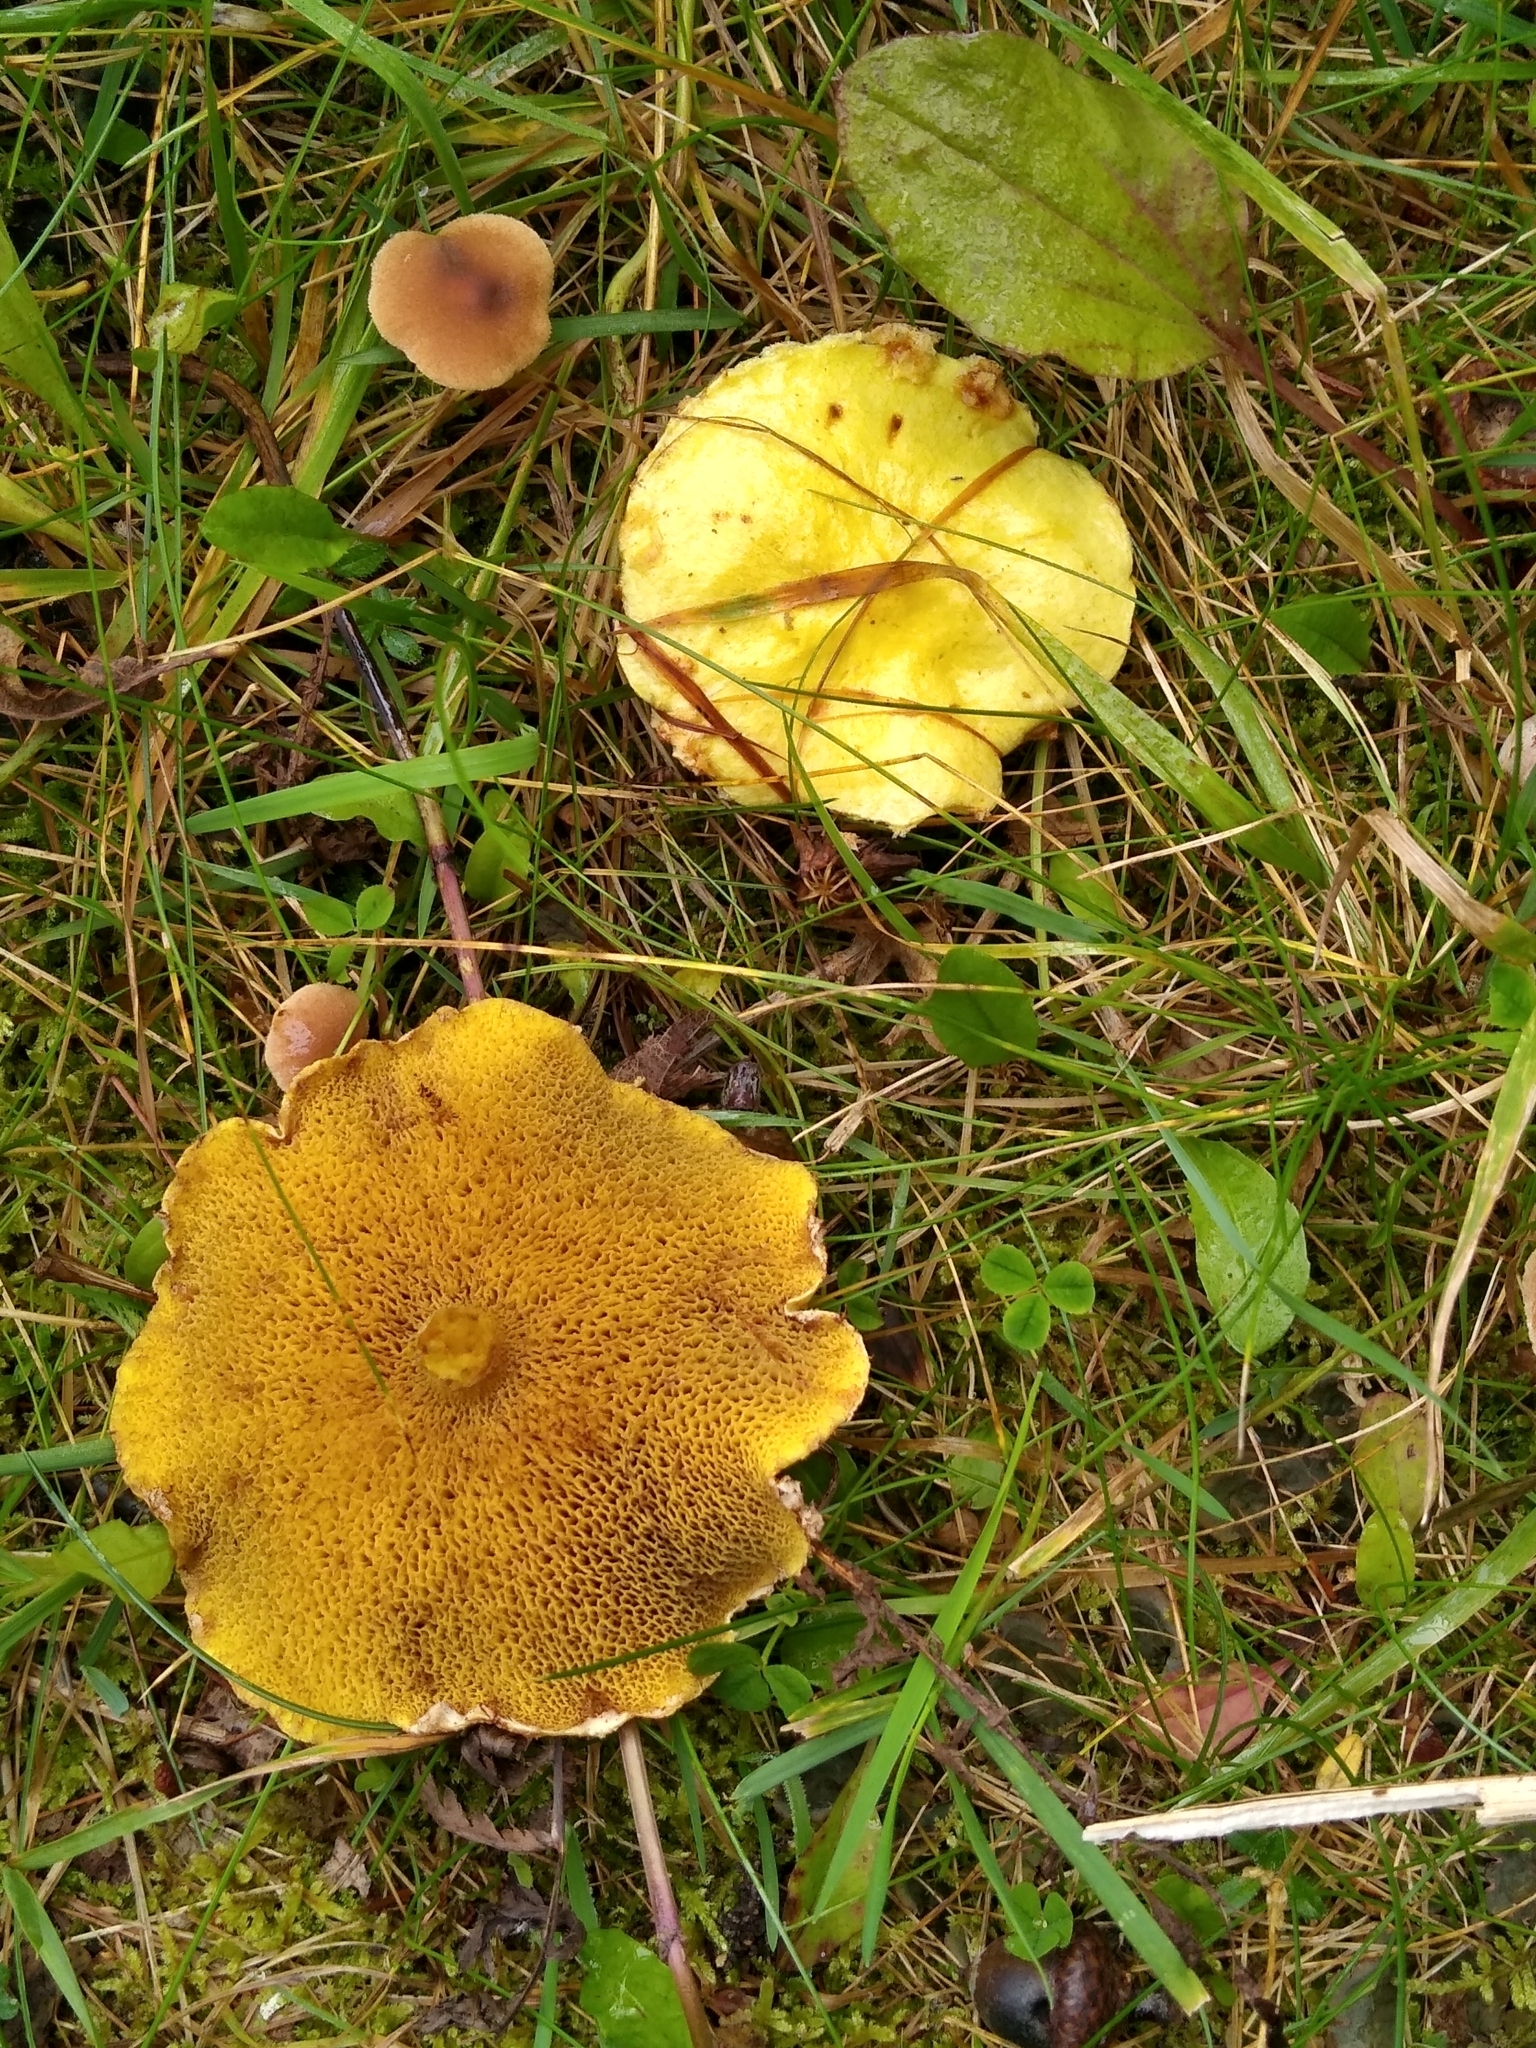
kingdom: Fungi
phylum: Basidiomycota
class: Agaricomycetes
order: Boletales
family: Suillaceae
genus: Suillus
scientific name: Suillus americanus
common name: Chicken fat mushroom
